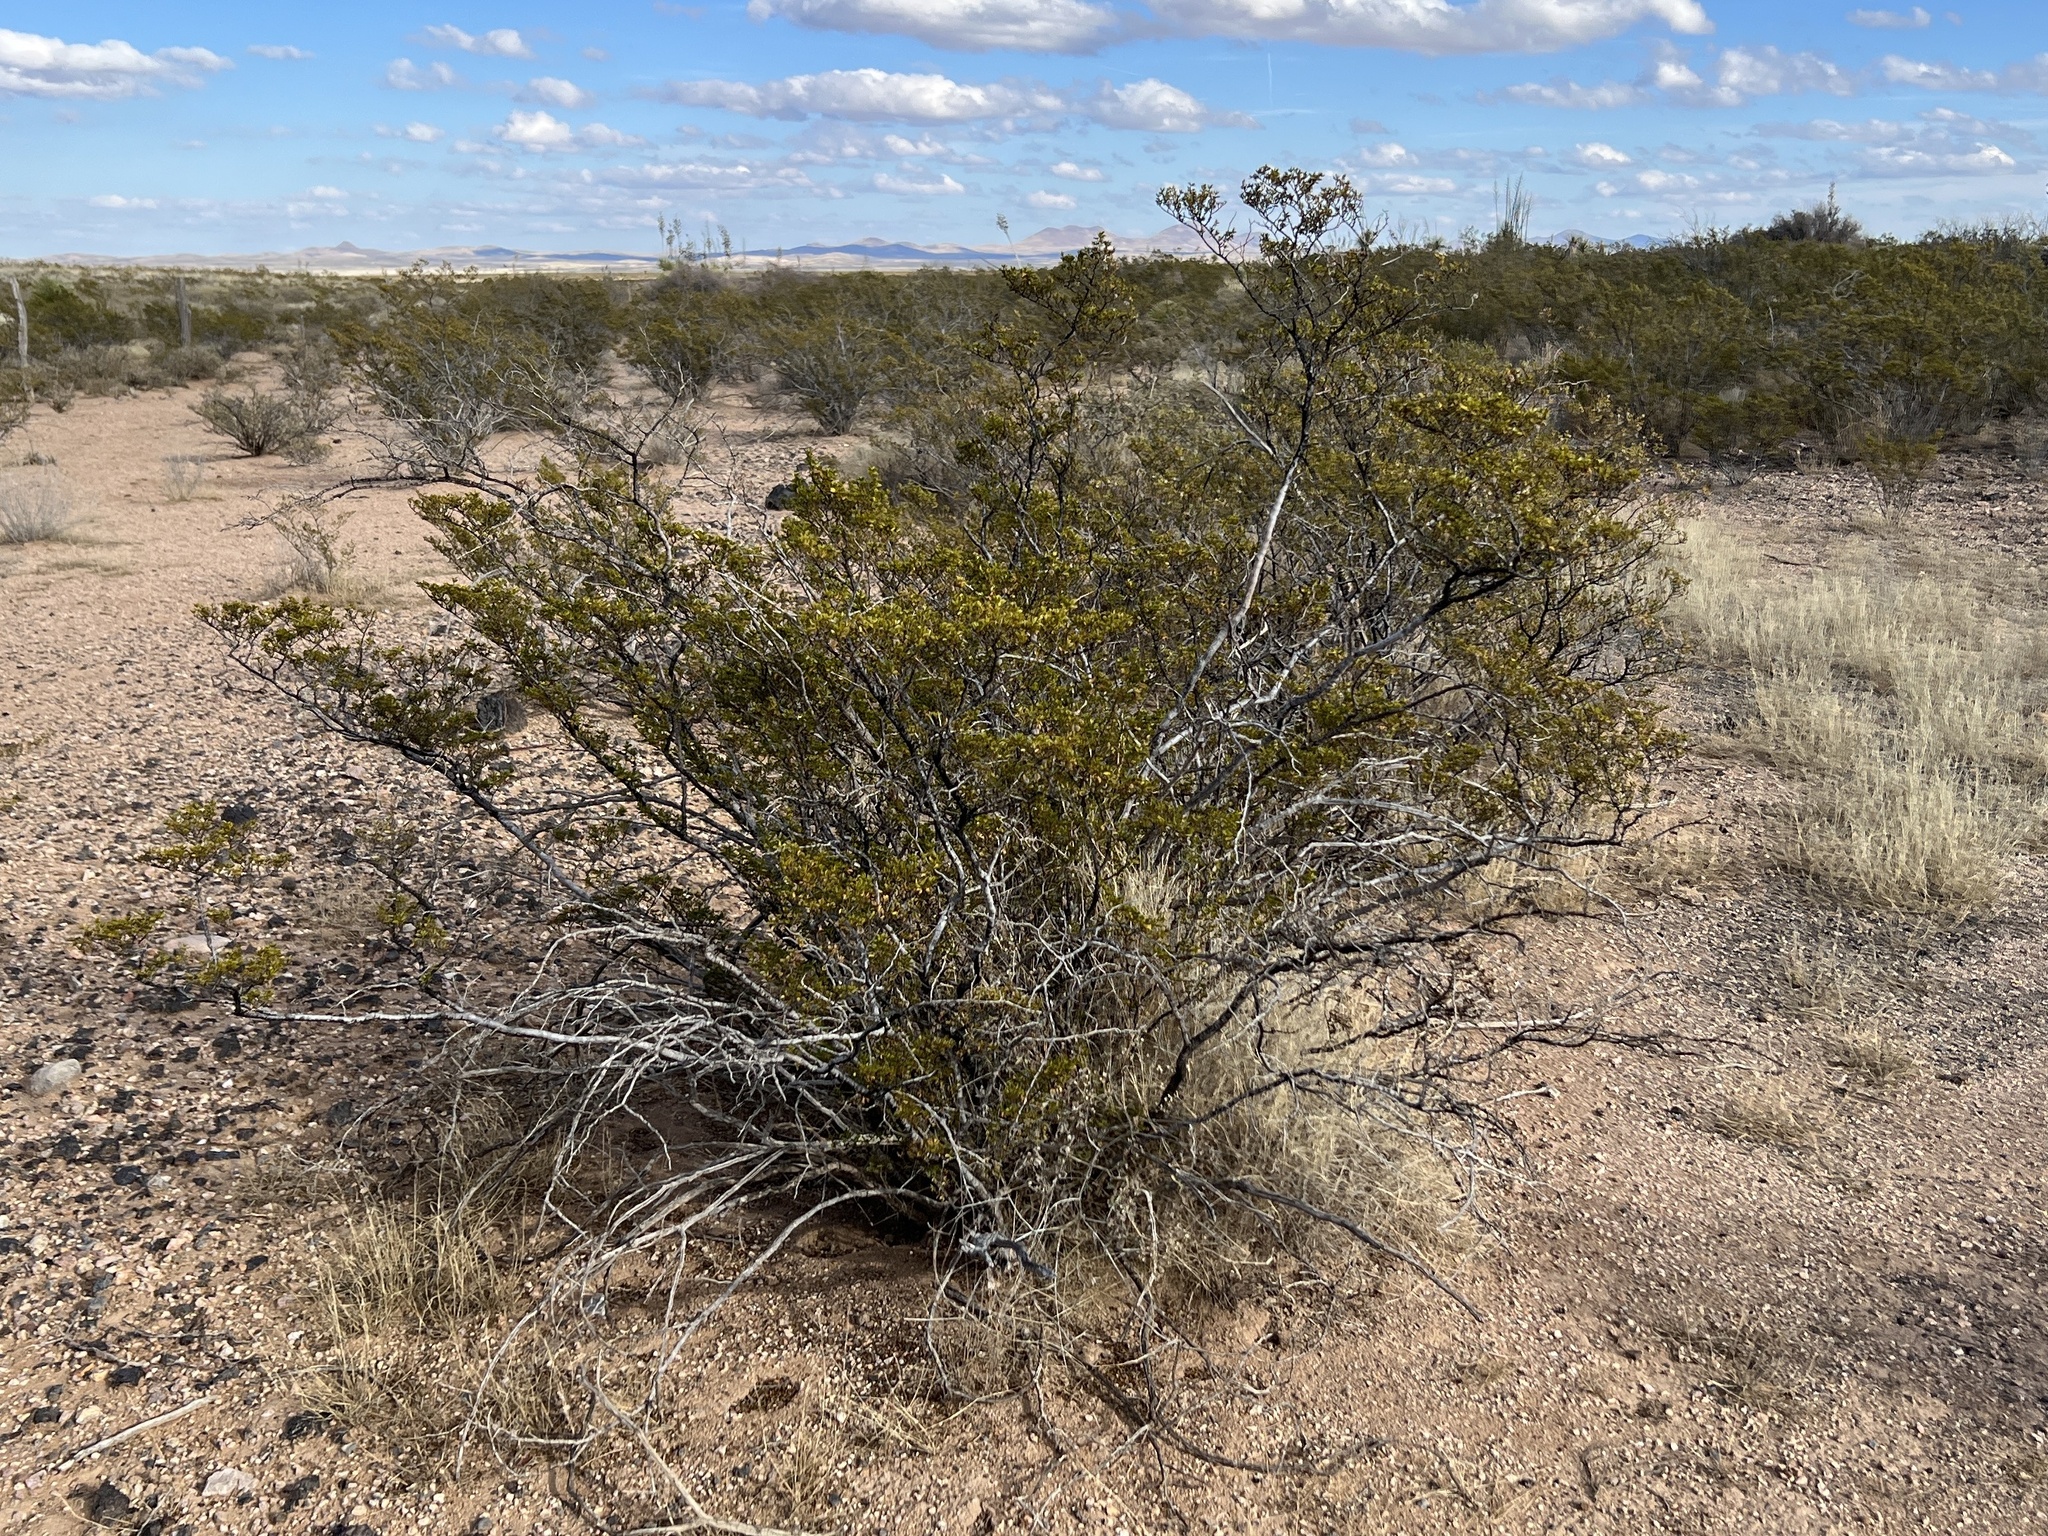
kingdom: Plantae
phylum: Tracheophyta
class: Magnoliopsida
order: Zygophyllales
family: Zygophyllaceae
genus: Larrea
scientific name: Larrea tridentata
